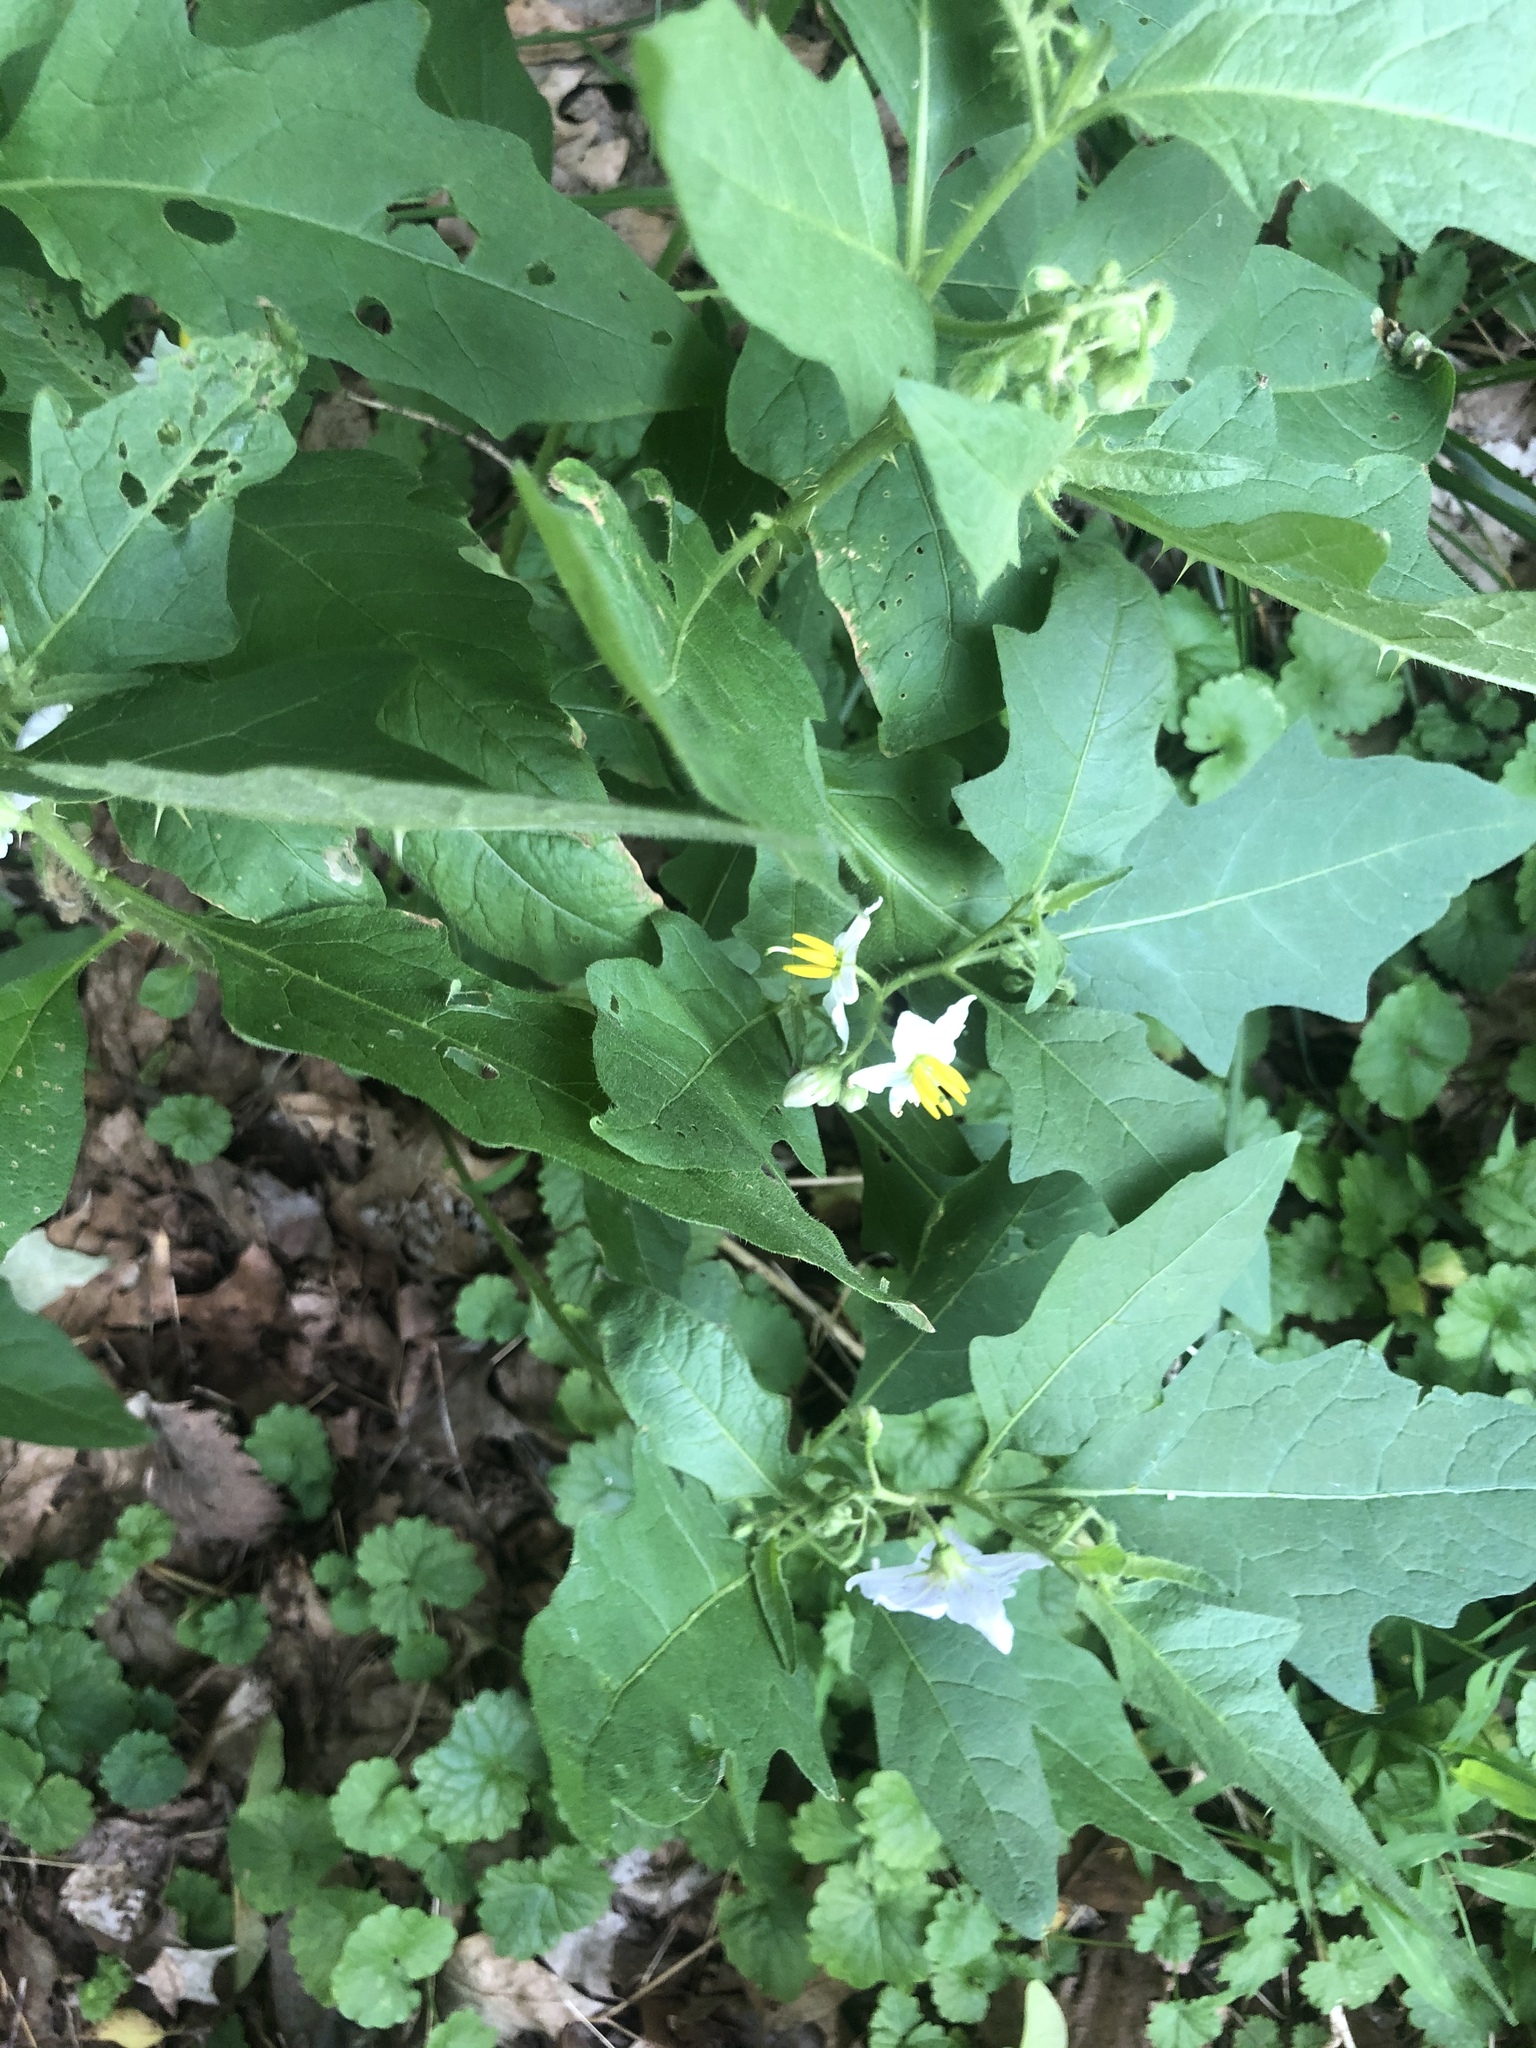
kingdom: Plantae
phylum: Tracheophyta
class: Magnoliopsida
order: Solanales
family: Solanaceae
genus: Solanum
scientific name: Solanum carolinense
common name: Horse-nettle
